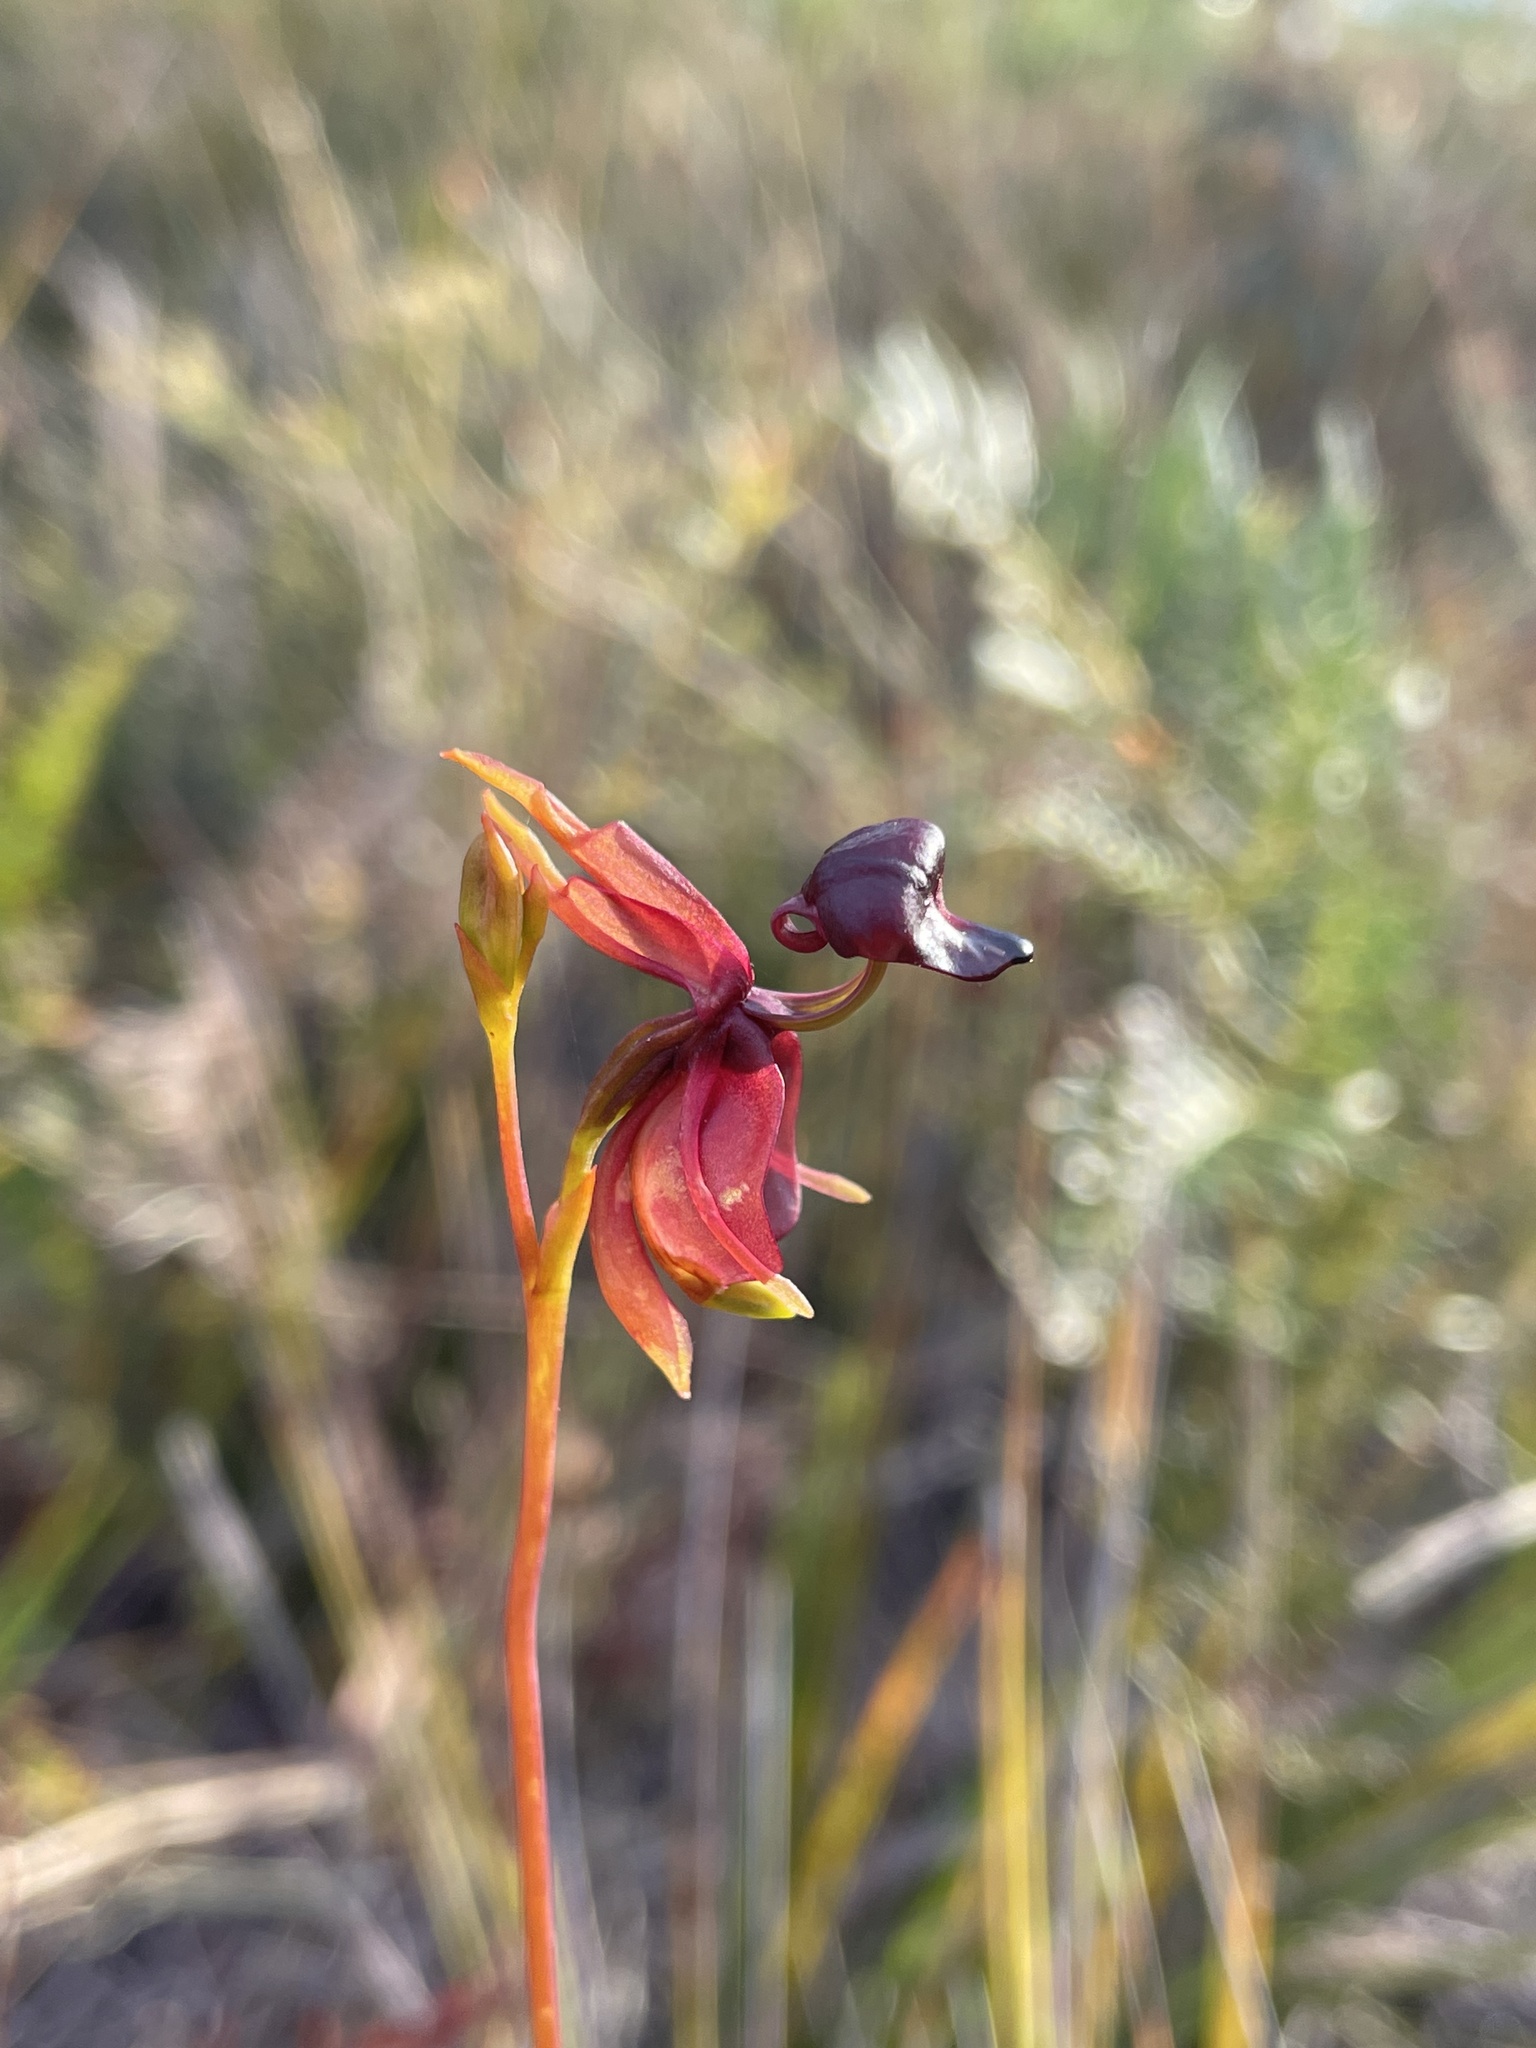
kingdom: Plantae
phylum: Tracheophyta
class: Liliopsida
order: Asparagales
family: Orchidaceae
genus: Caleana
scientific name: Caleana major
